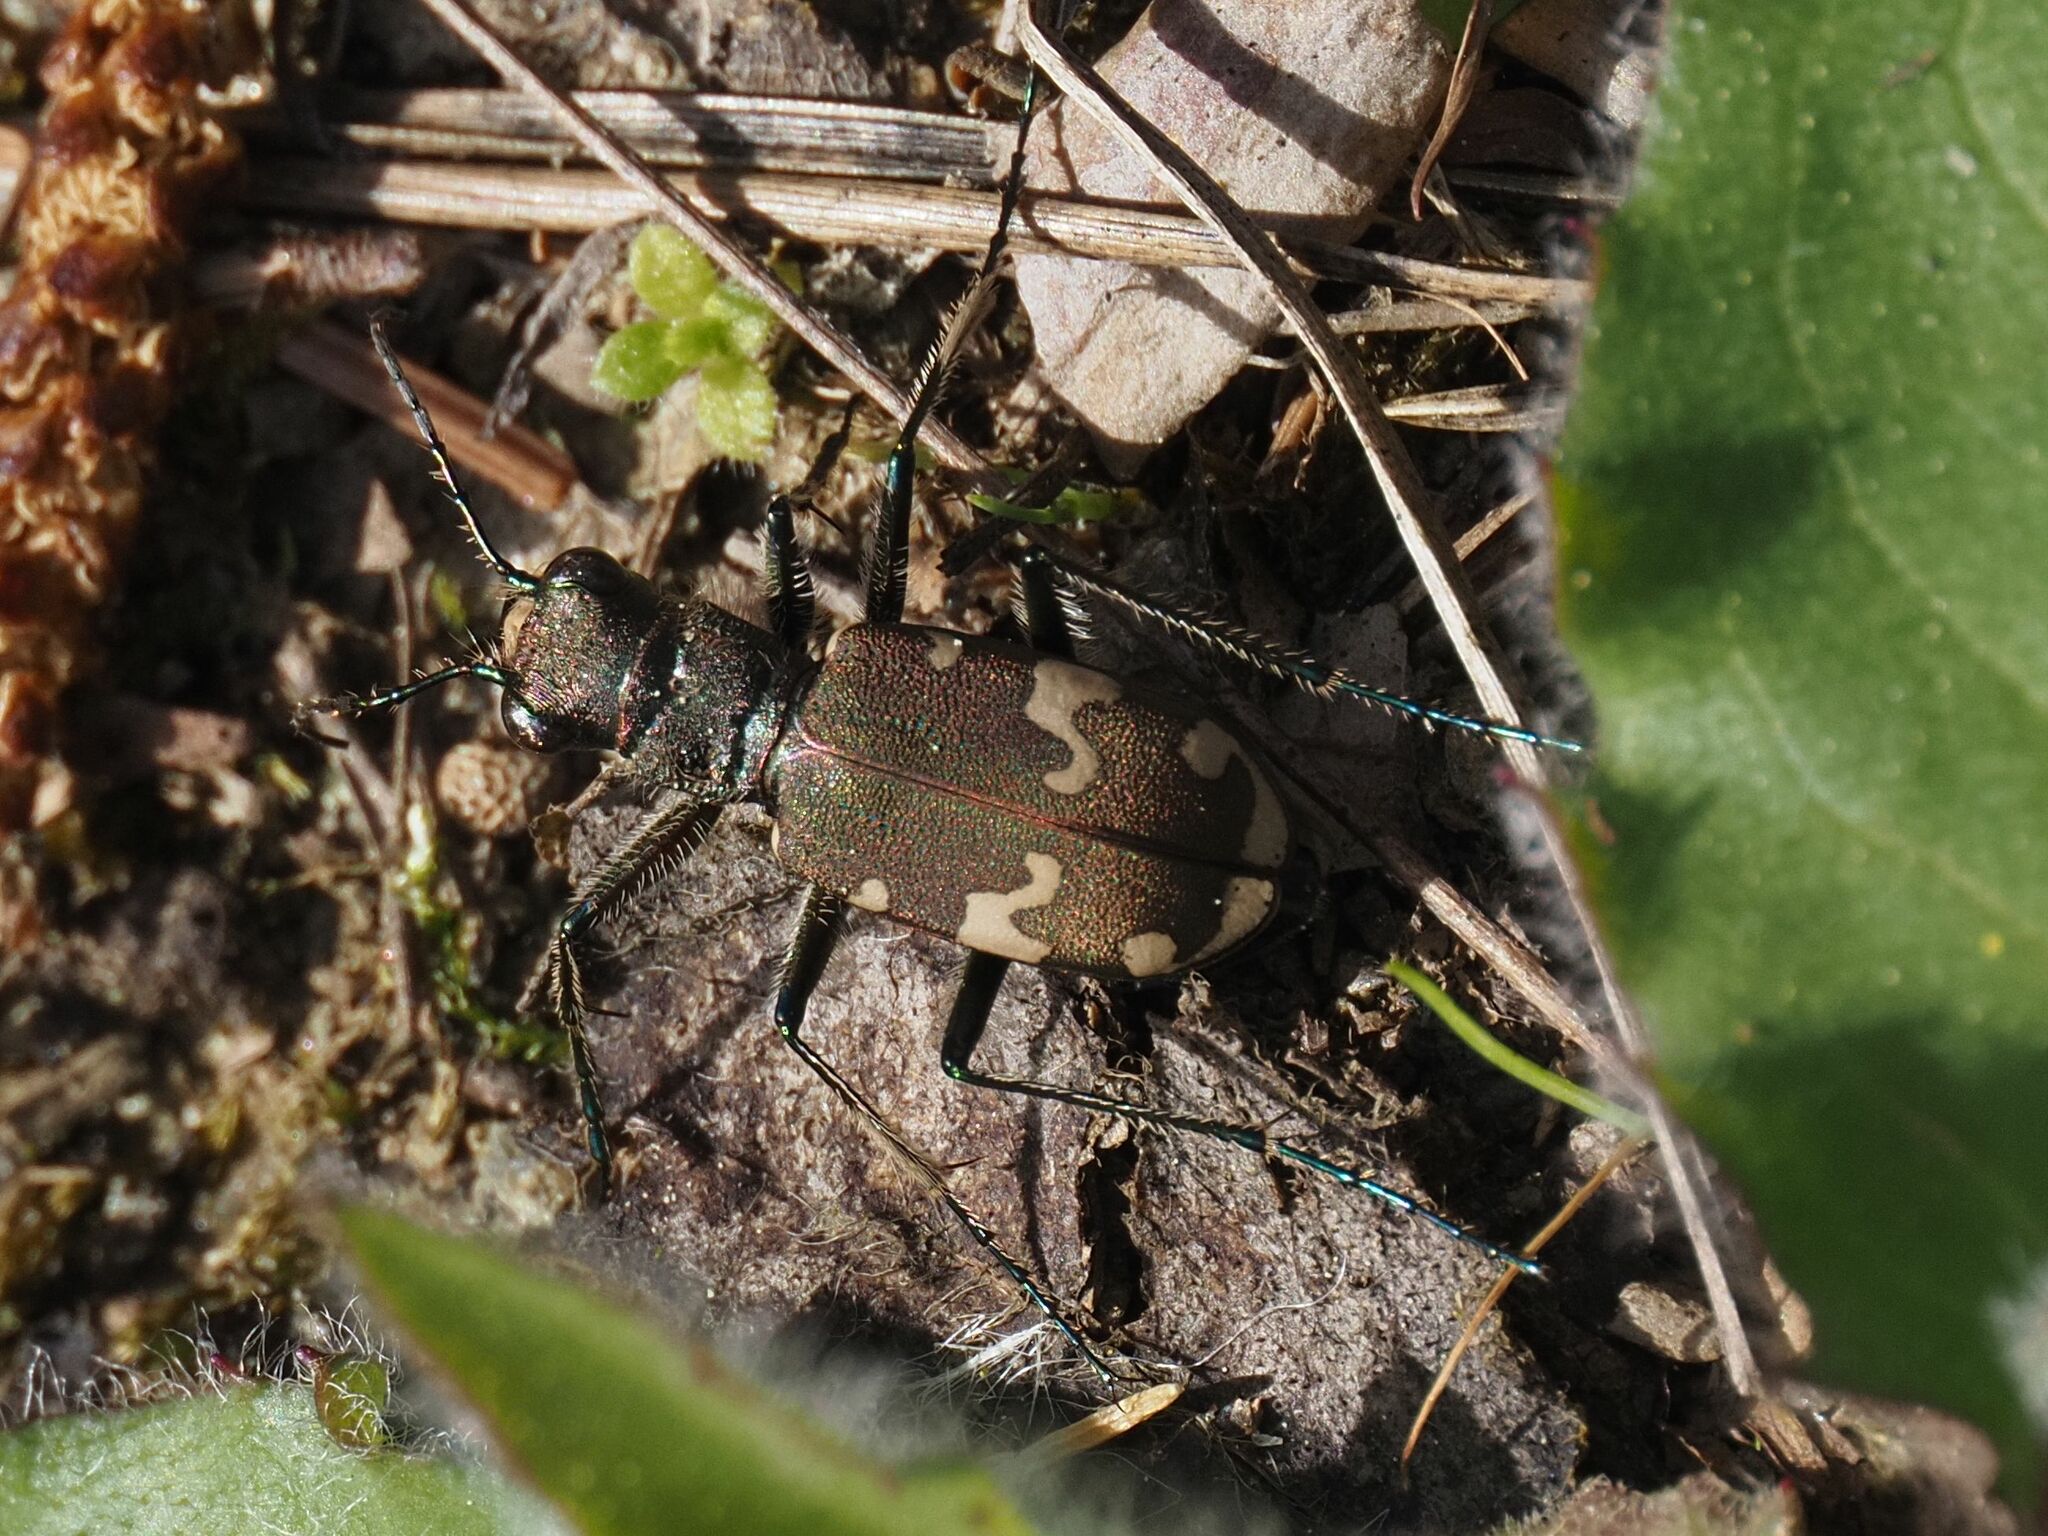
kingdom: Animalia
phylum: Arthropoda
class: Insecta
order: Coleoptera
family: Carabidae
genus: Cicindela
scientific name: Cicindela sylvicola
